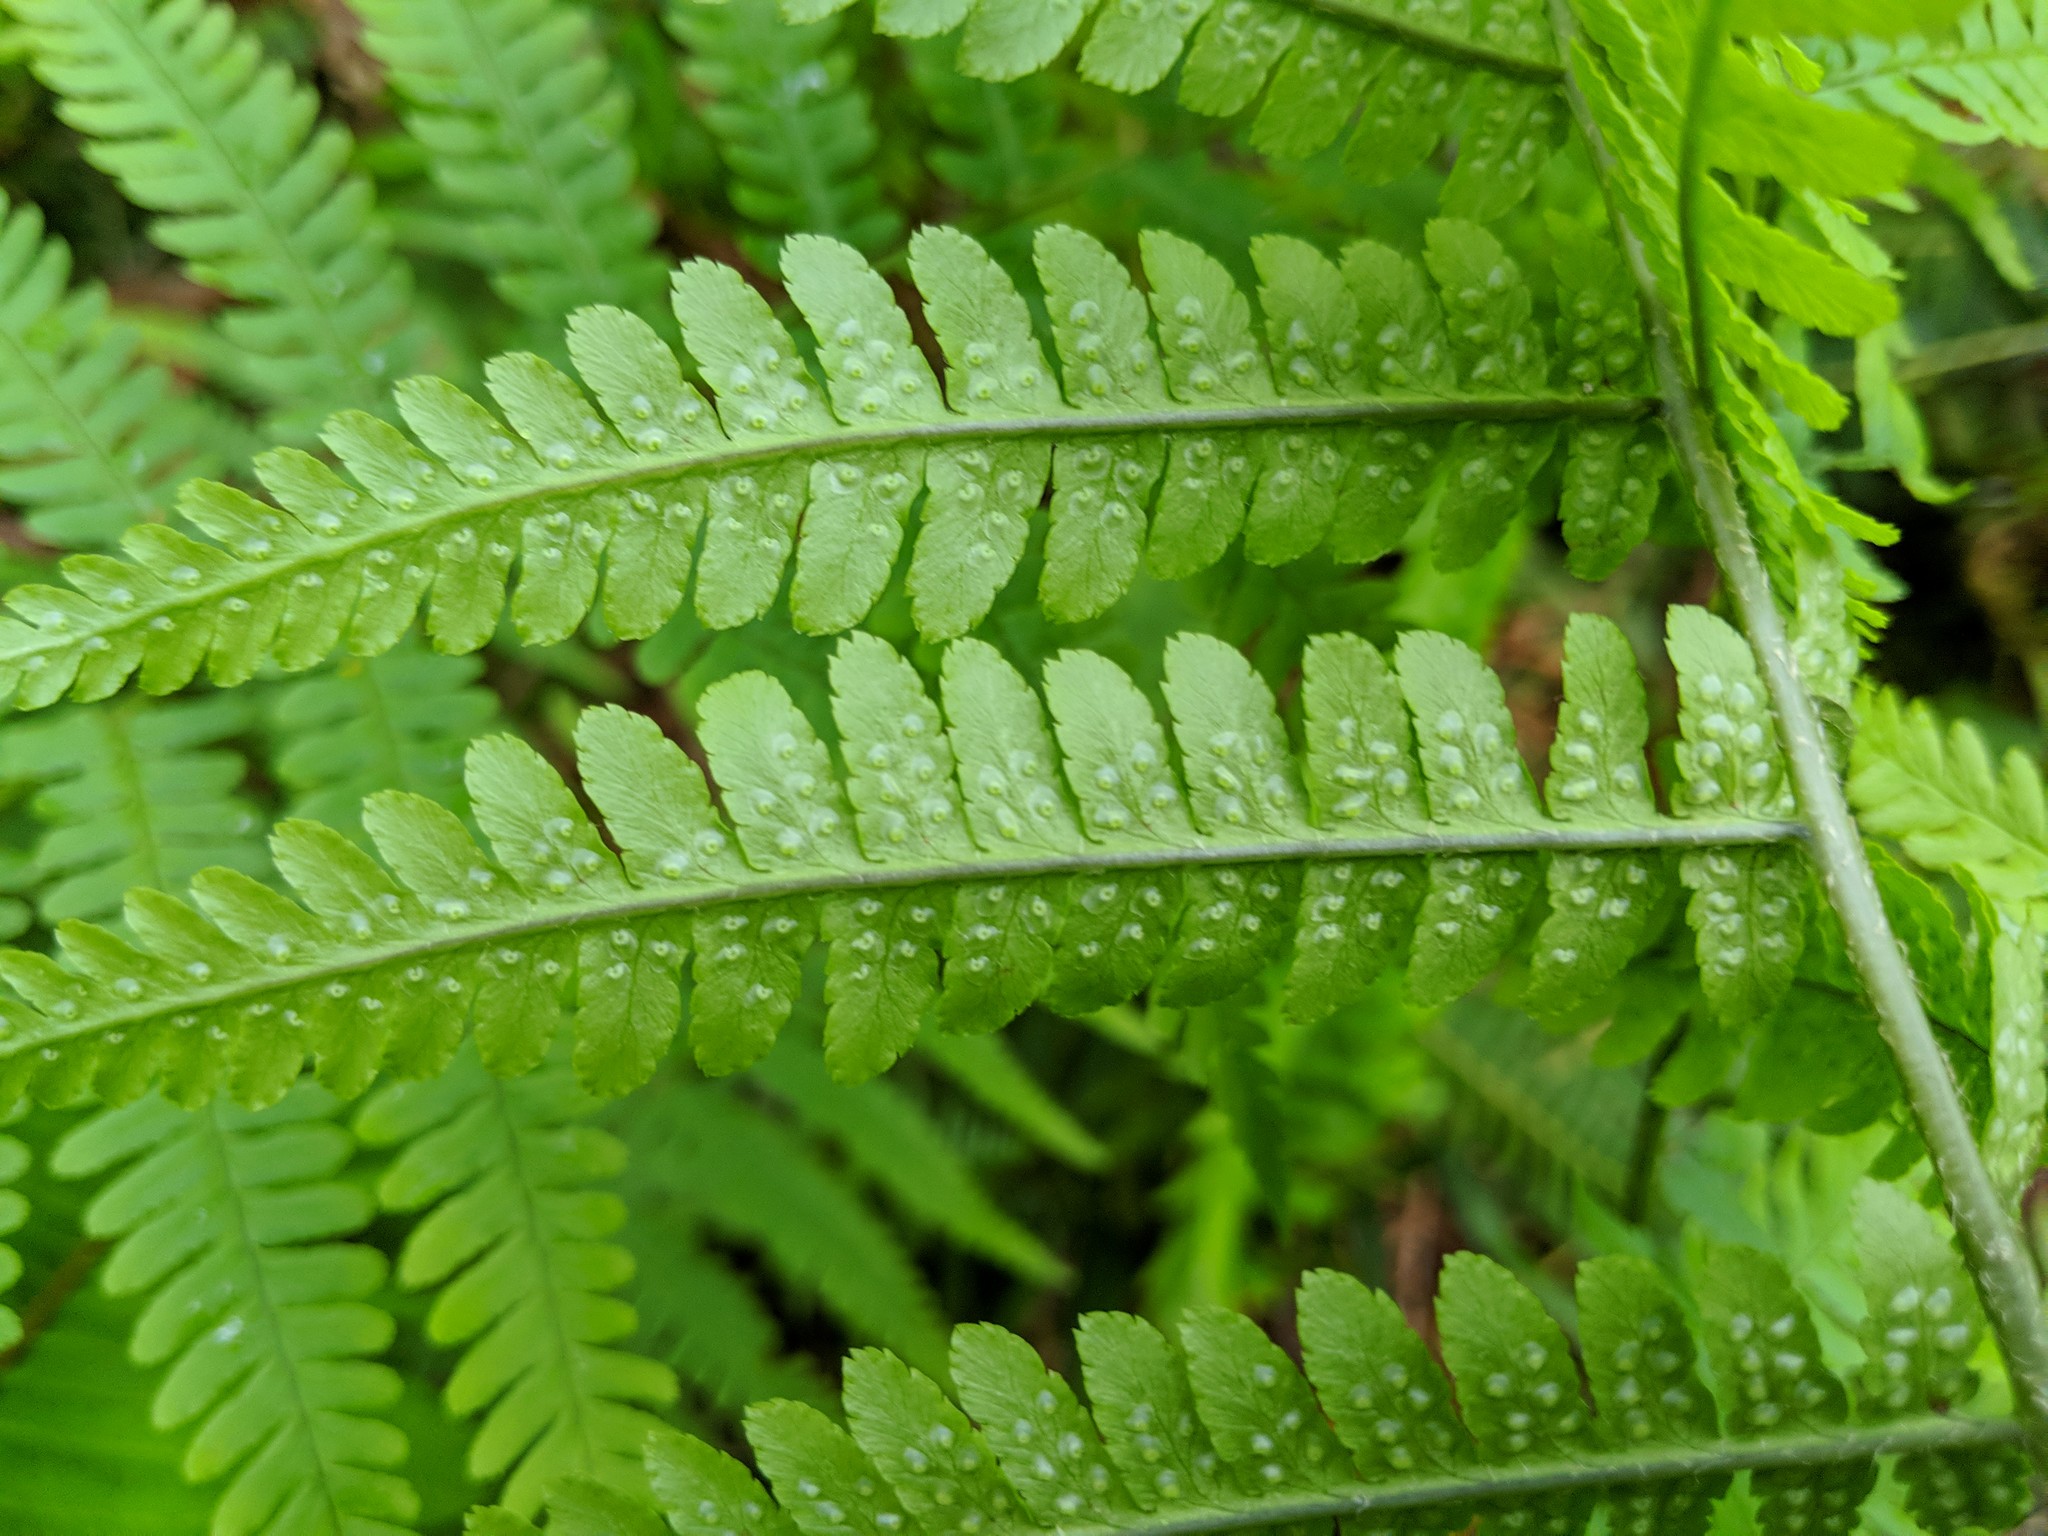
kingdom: Plantae
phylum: Tracheophyta
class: Polypodiopsida
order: Polypodiales
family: Dryopteridaceae
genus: Dryopteris
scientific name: Dryopteris filix-mas
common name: Male fern
